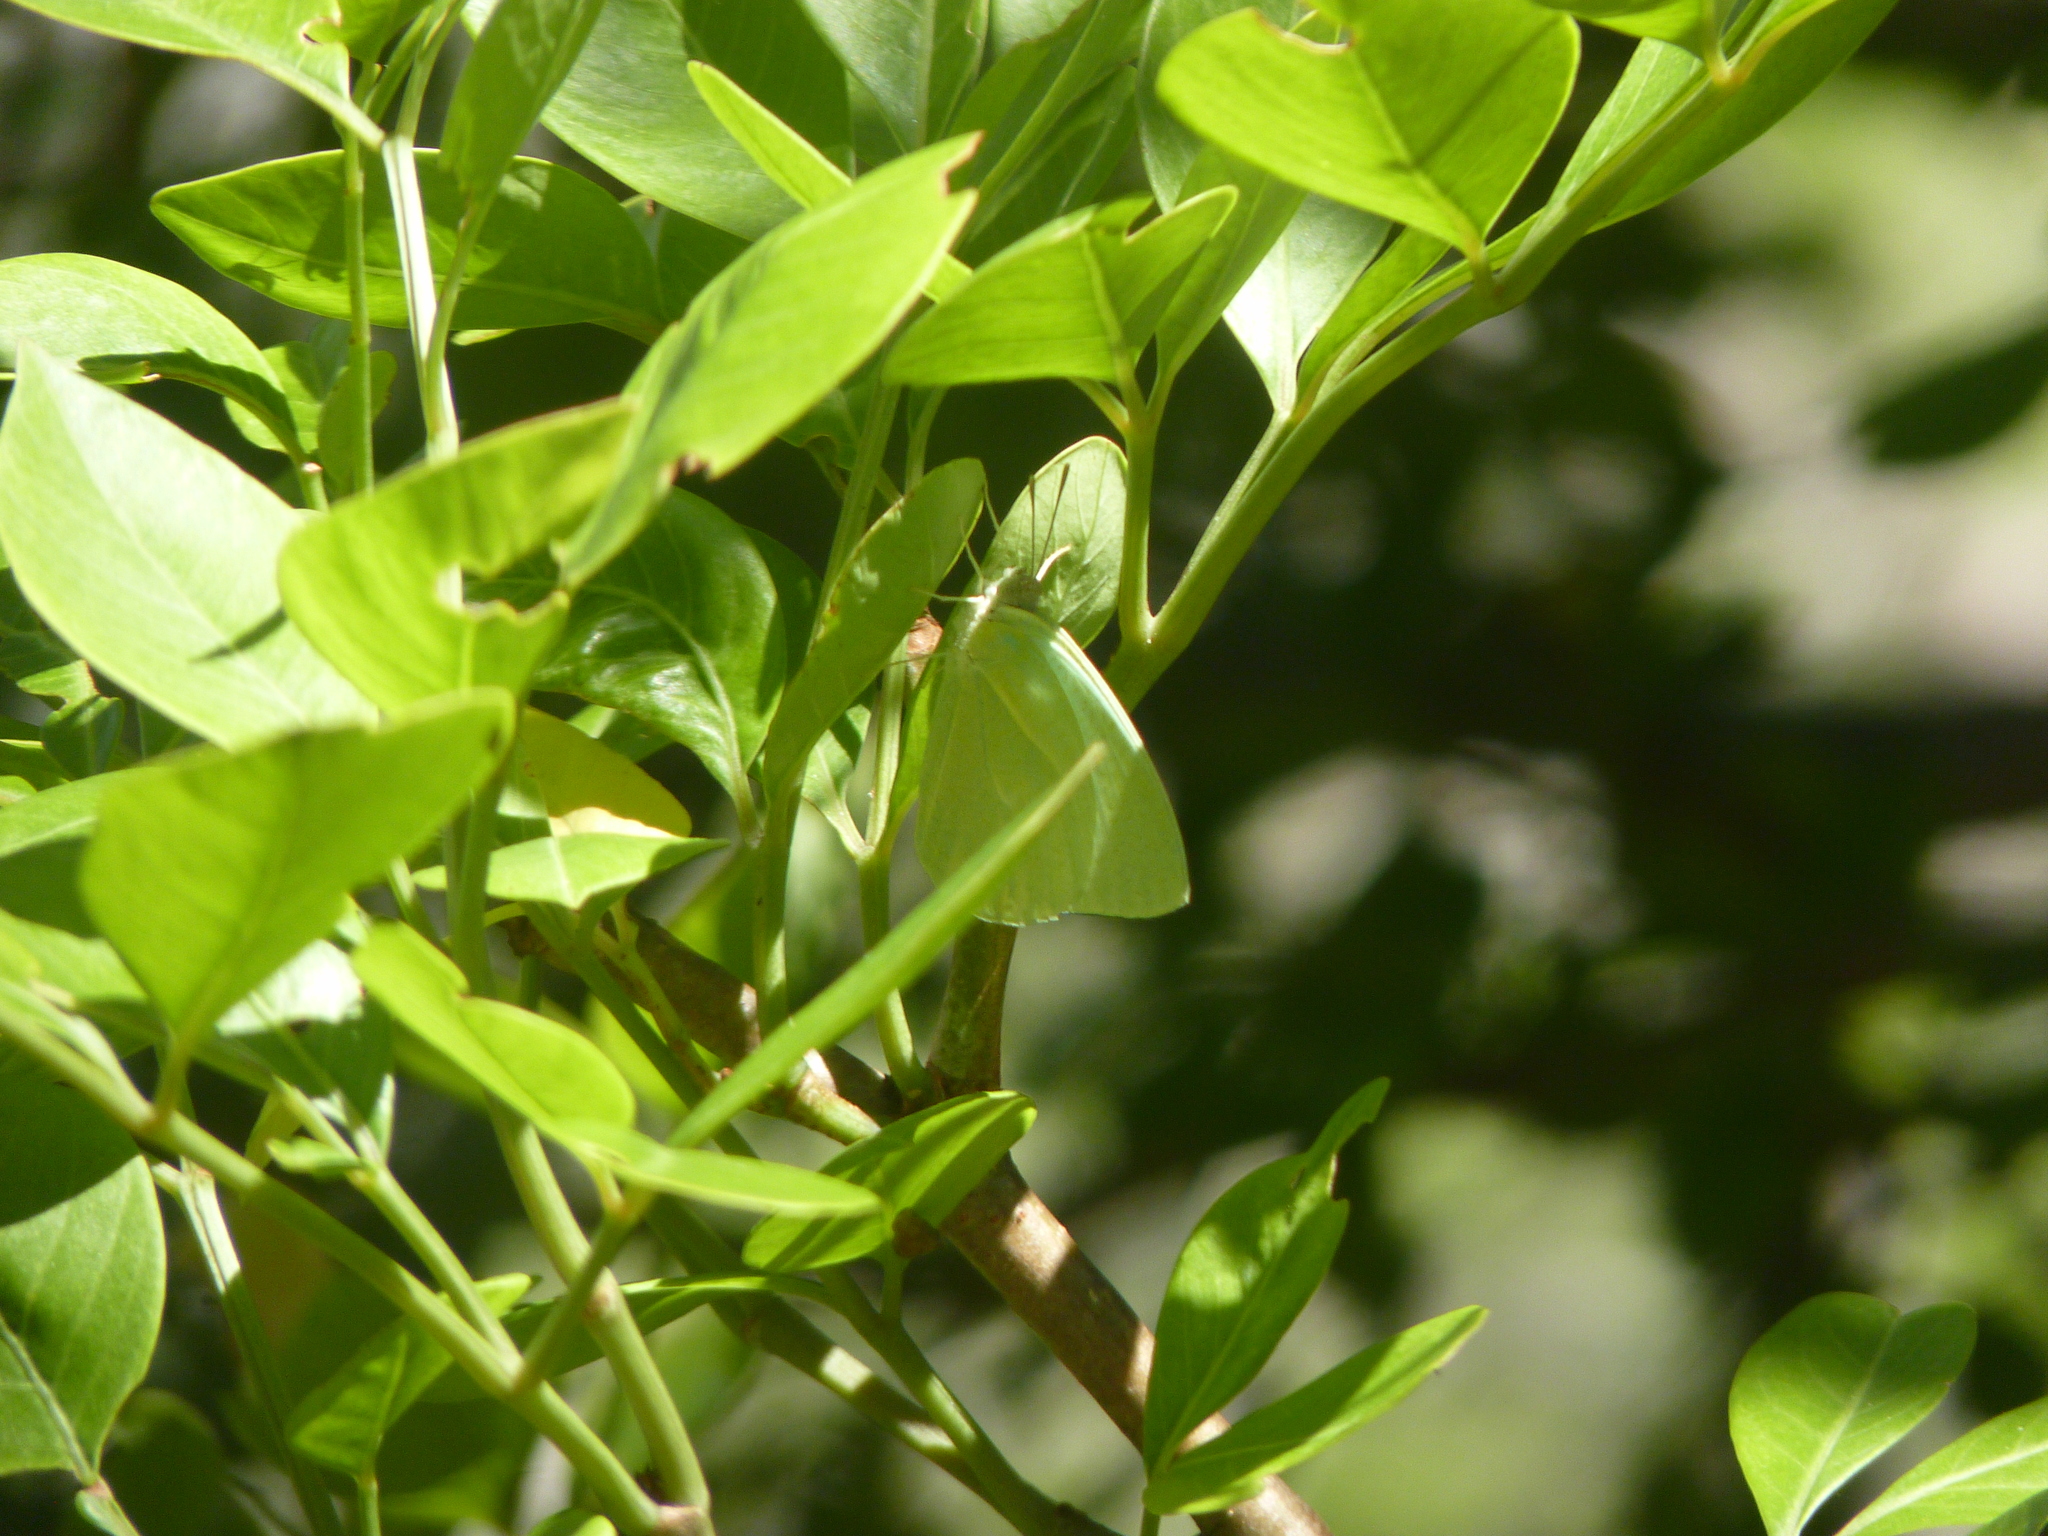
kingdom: Animalia
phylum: Arthropoda
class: Insecta
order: Lepidoptera
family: Pieridae
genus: Catopsilia
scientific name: Catopsilia florella
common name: African migrant
